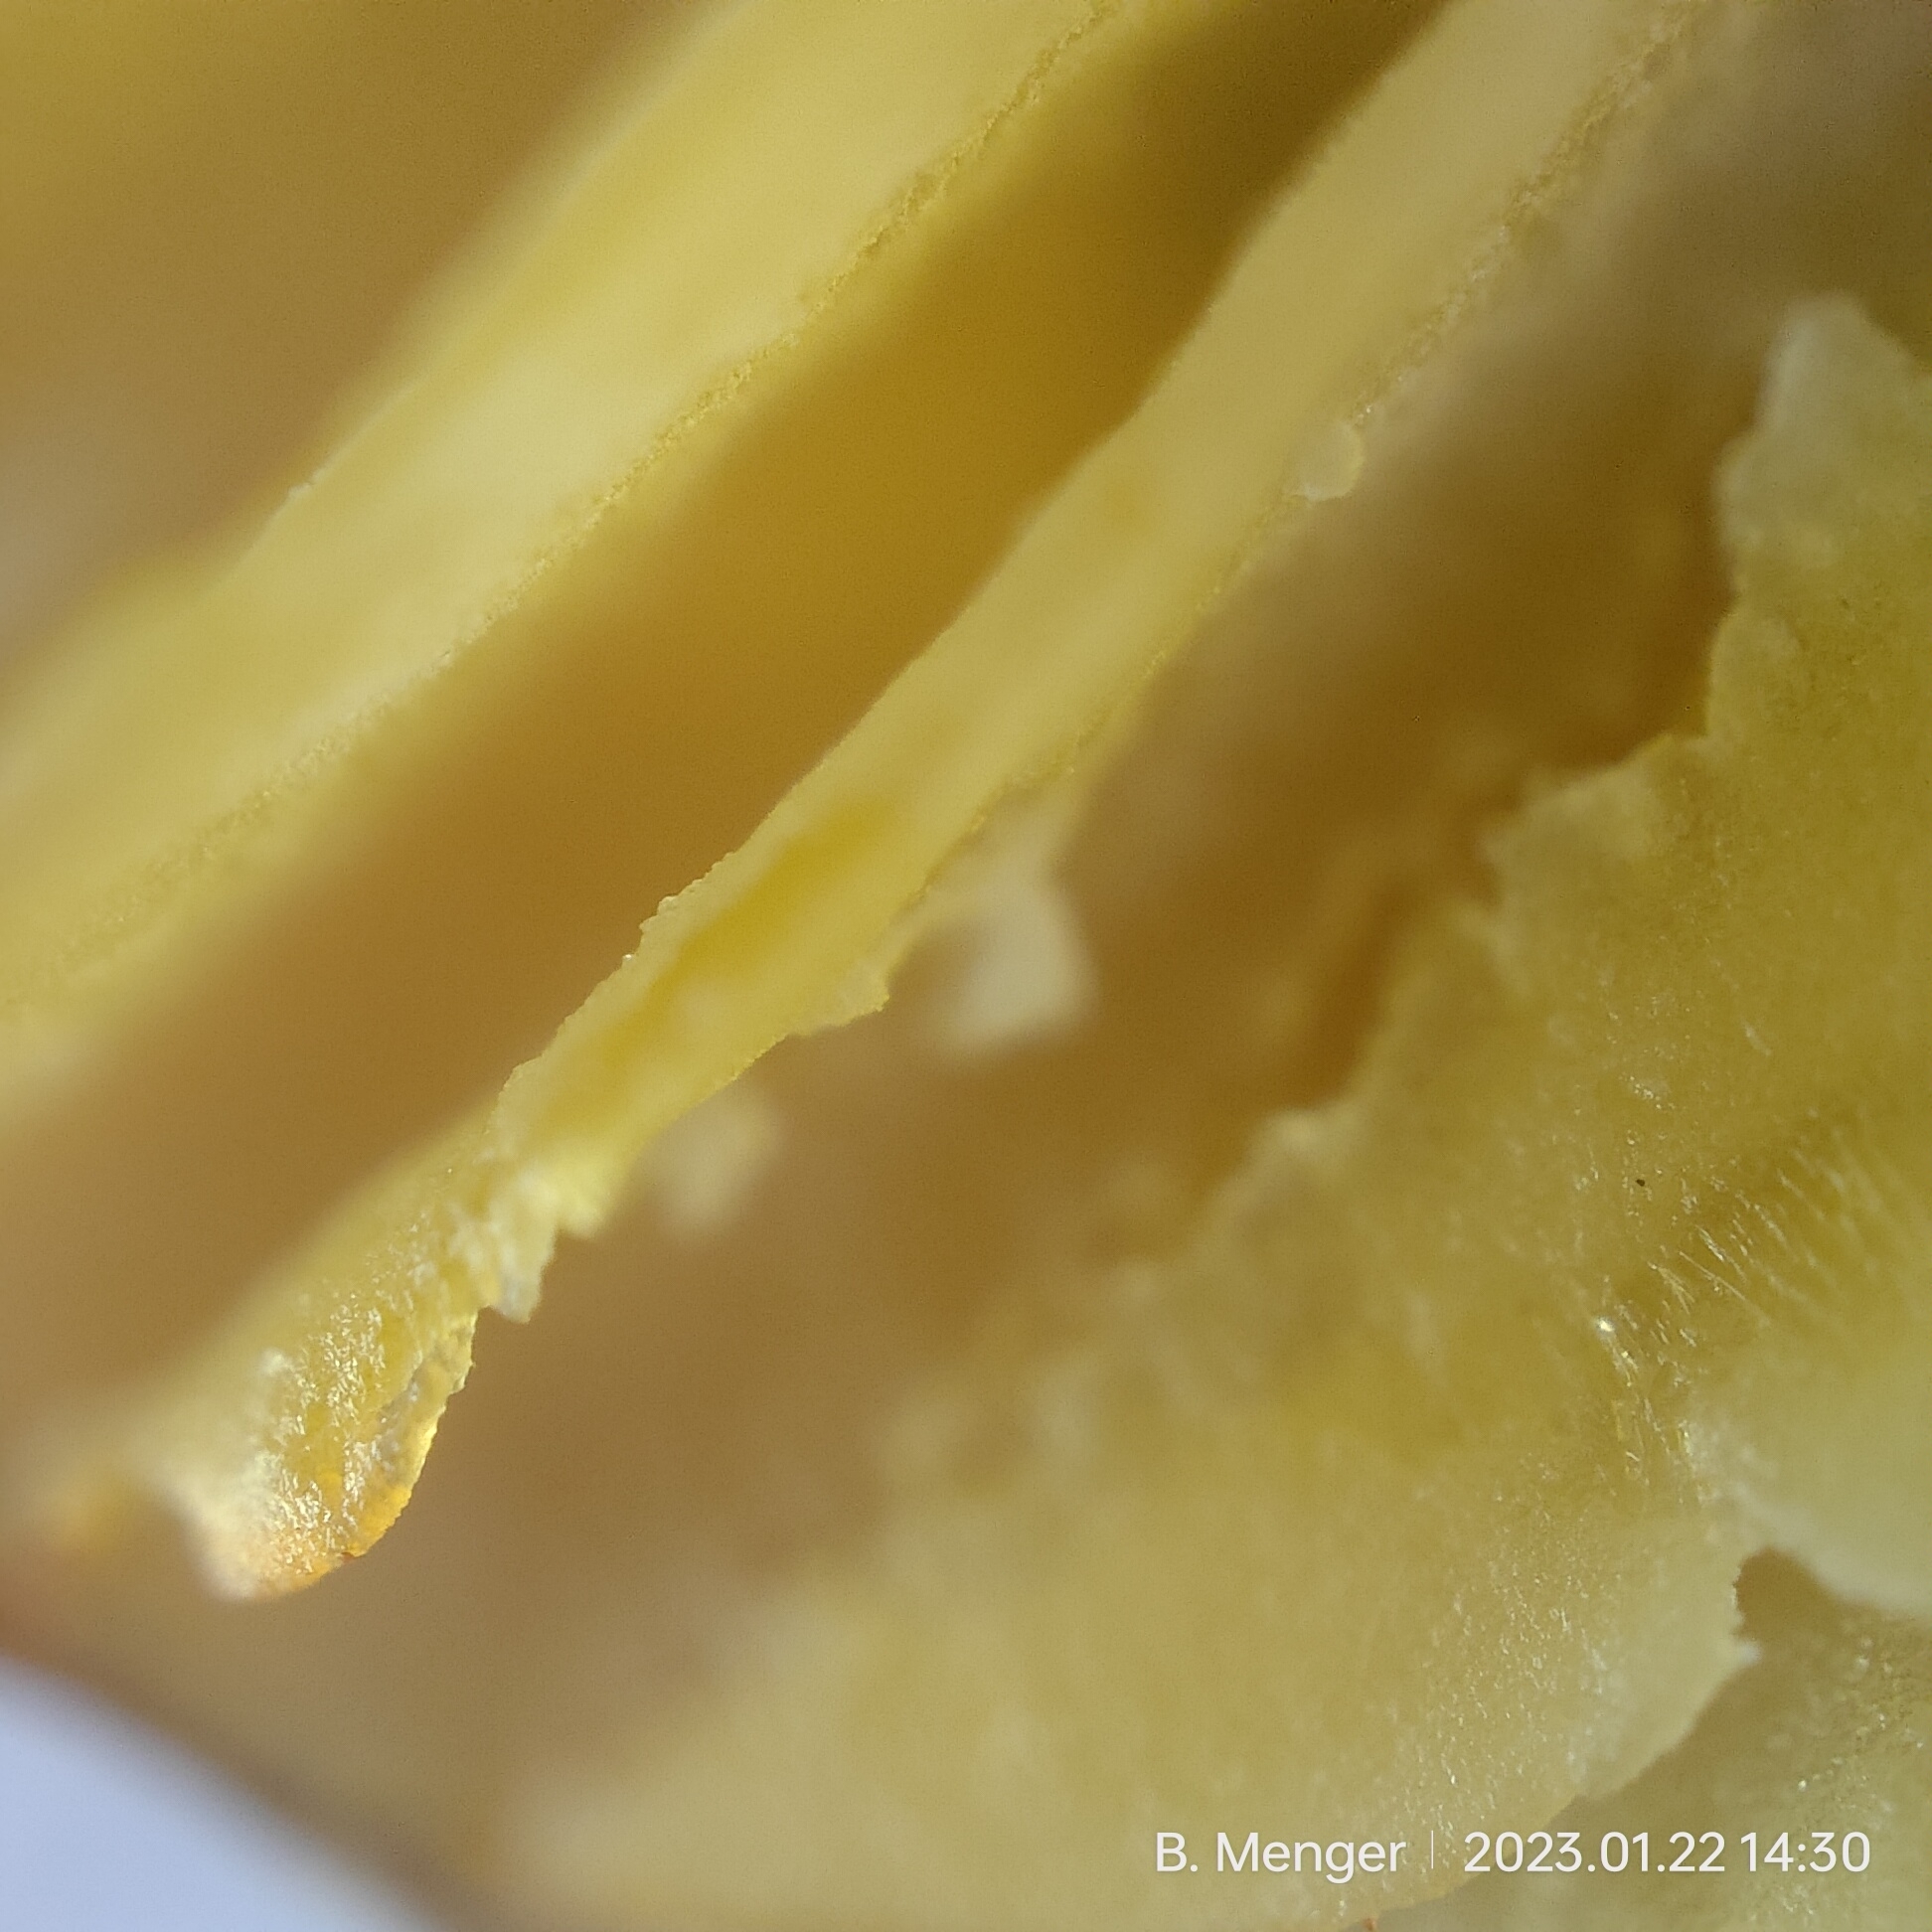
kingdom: Fungi
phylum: Basidiomycota
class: Agaricomycetes
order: Agaricales
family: Hygrophoraceae
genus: Hygrocybe
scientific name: Hygrocybe fuliginata
